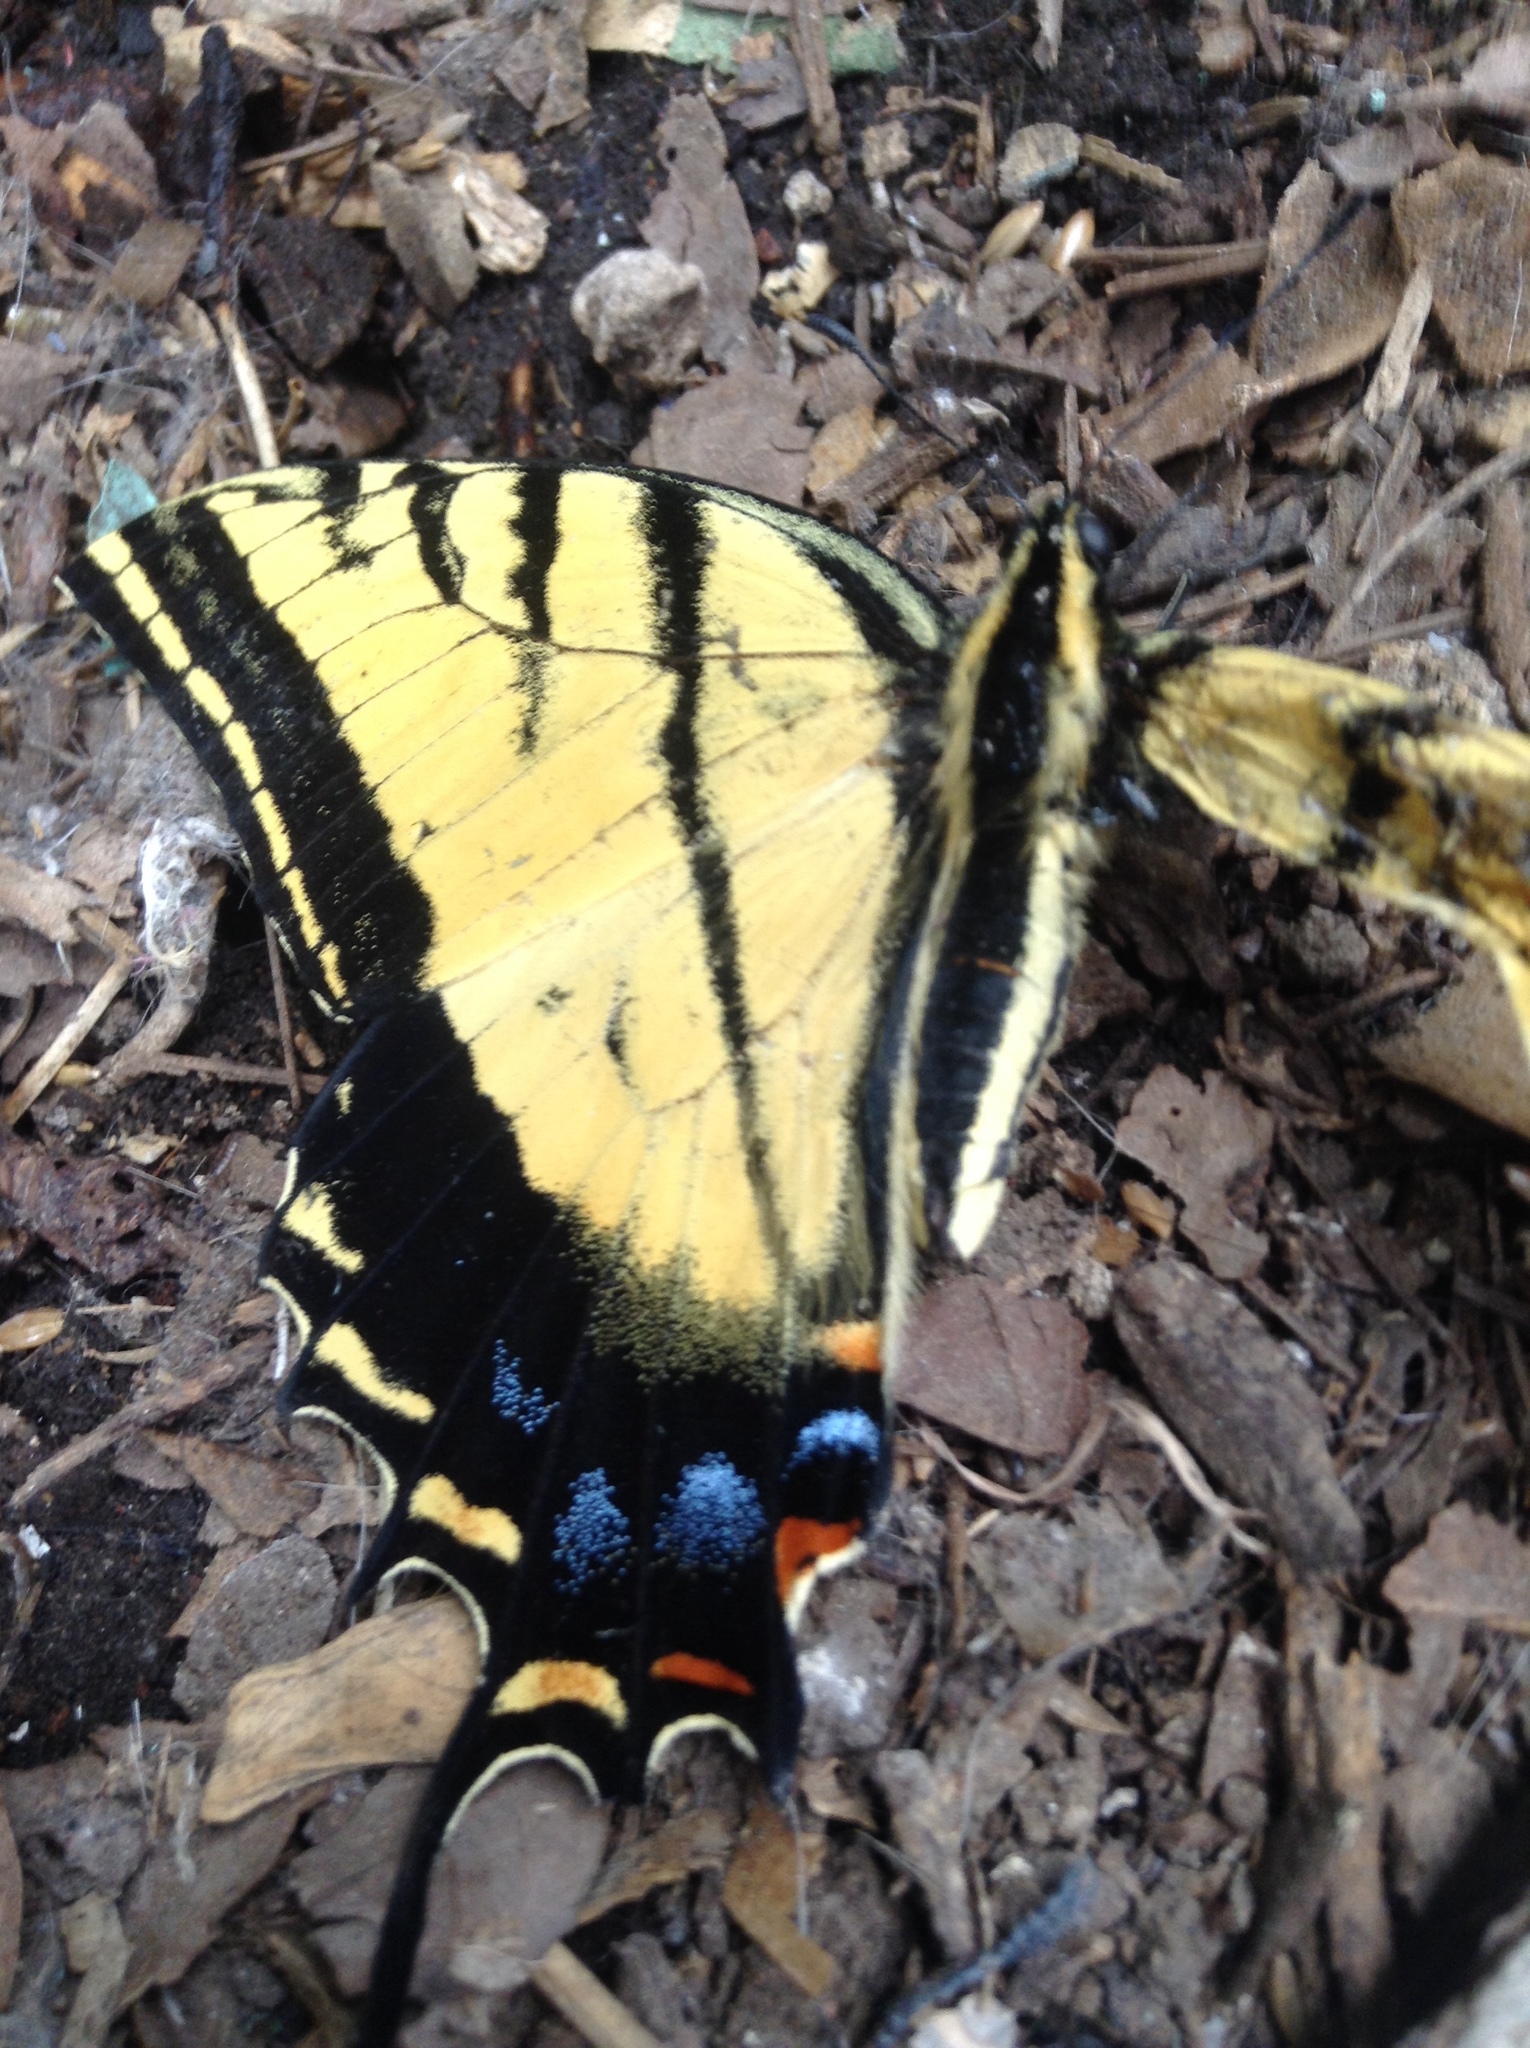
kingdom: Animalia
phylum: Arthropoda
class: Insecta
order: Lepidoptera
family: Papilionidae
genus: Papilio
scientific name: Papilio multicaudata
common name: Two-tailed tiger swallowtail
